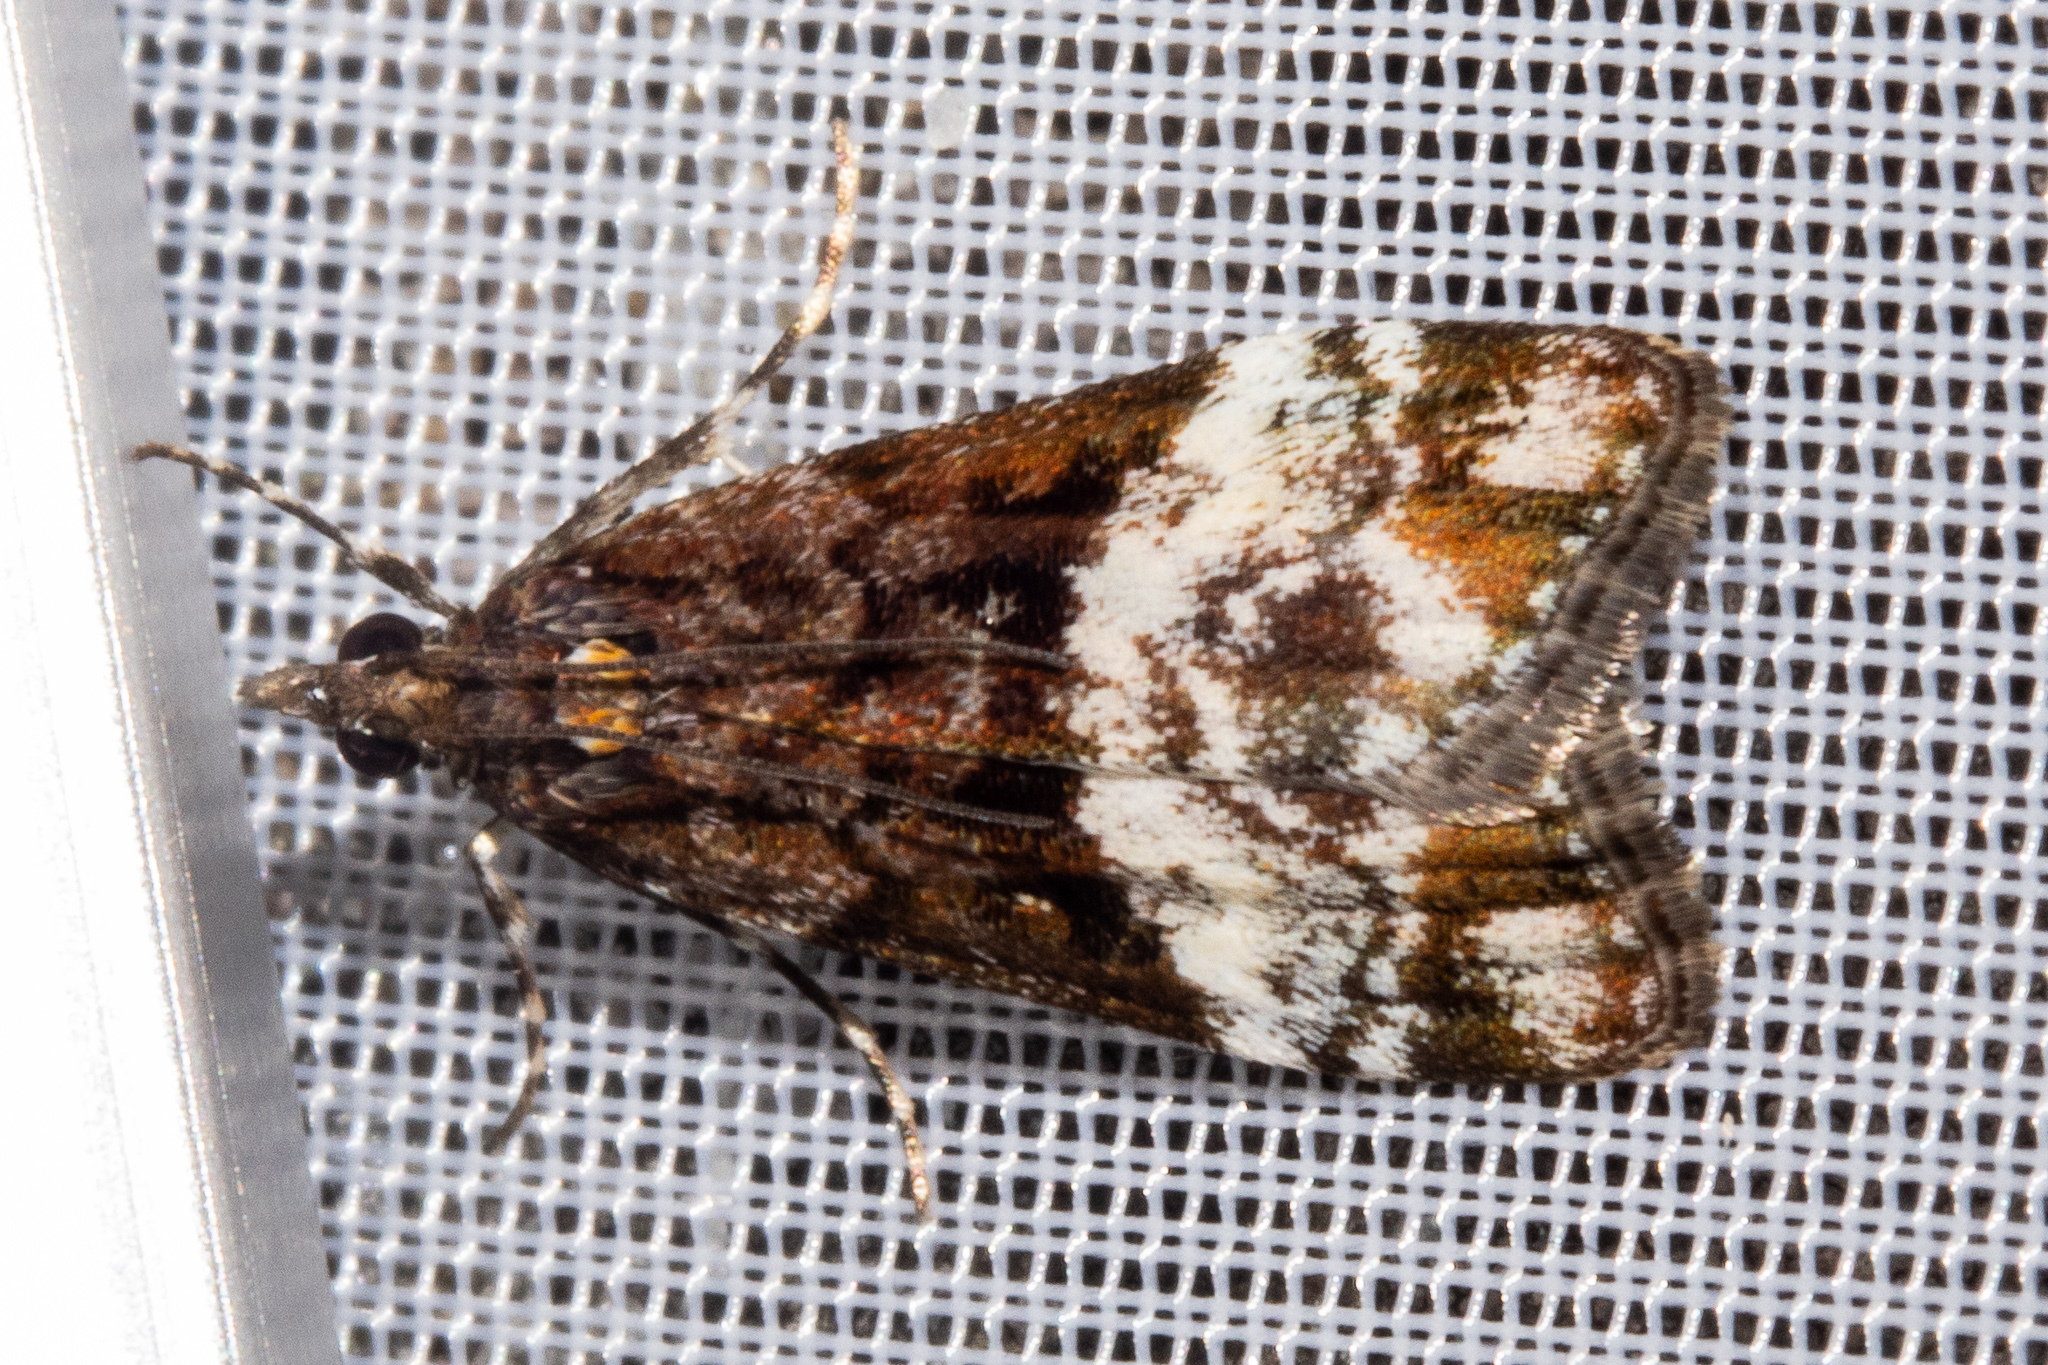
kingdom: Animalia
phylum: Arthropoda
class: Insecta
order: Lepidoptera
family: Crambidae
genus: Scoparia
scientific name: Scoparia minusculalis
